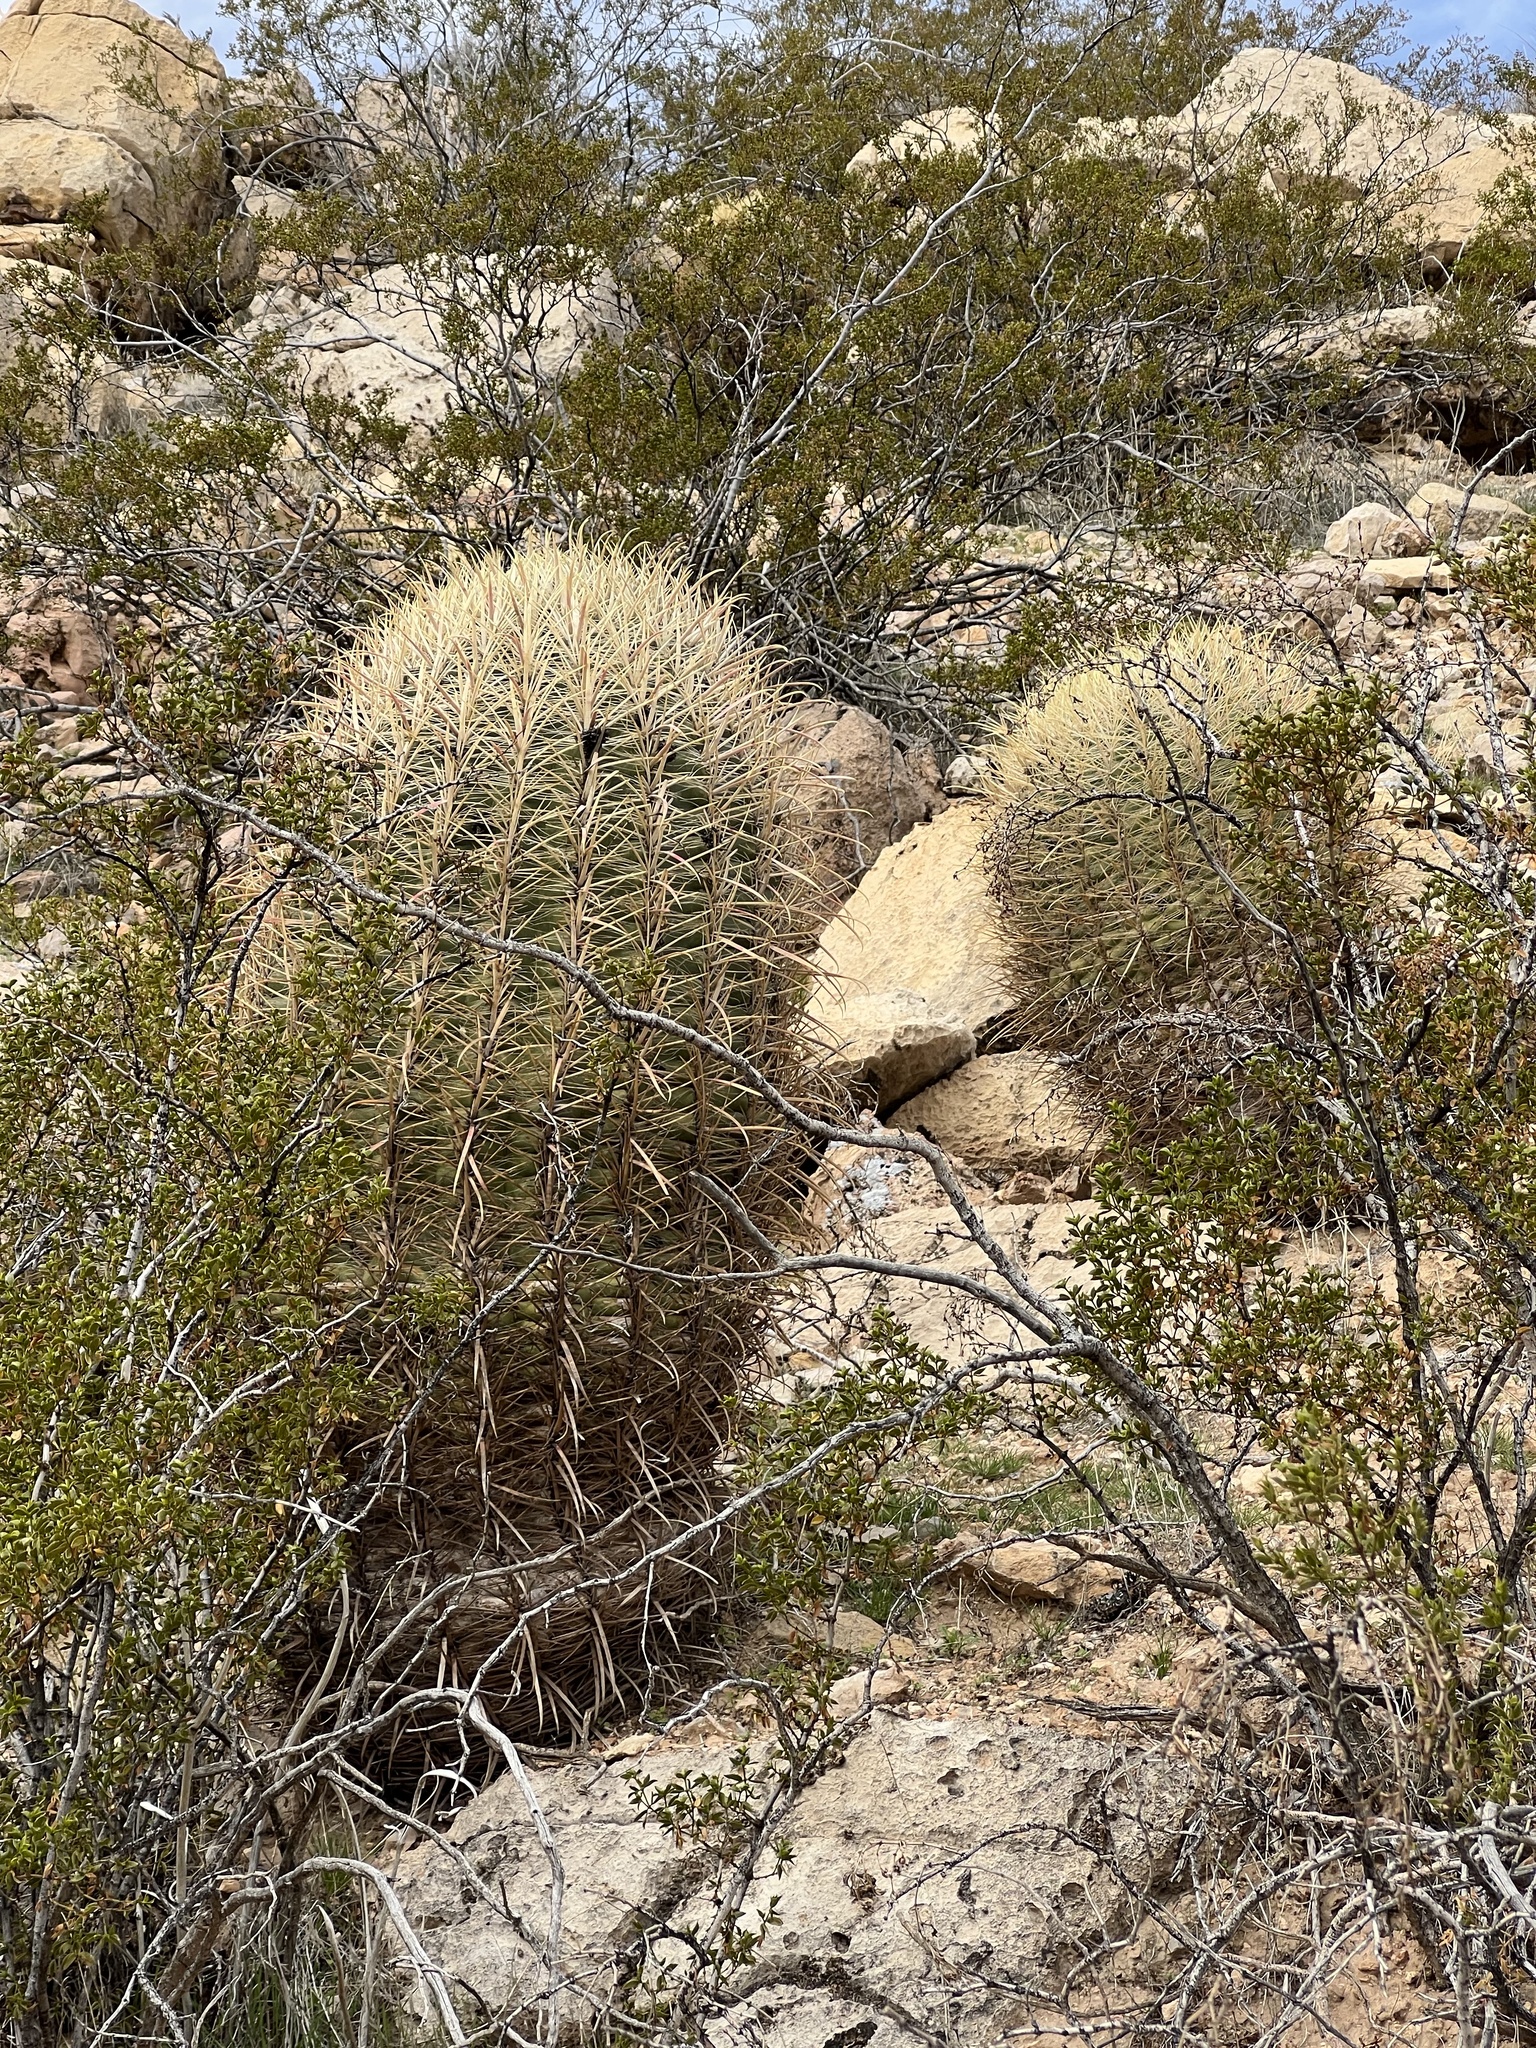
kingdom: Plantae
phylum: Tracheophyta
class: Magnoliopsida
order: Caryophyllales
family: Cactaceae
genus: Ferocactus
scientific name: Ferocactus cylindraceus
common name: California barrel cactus
